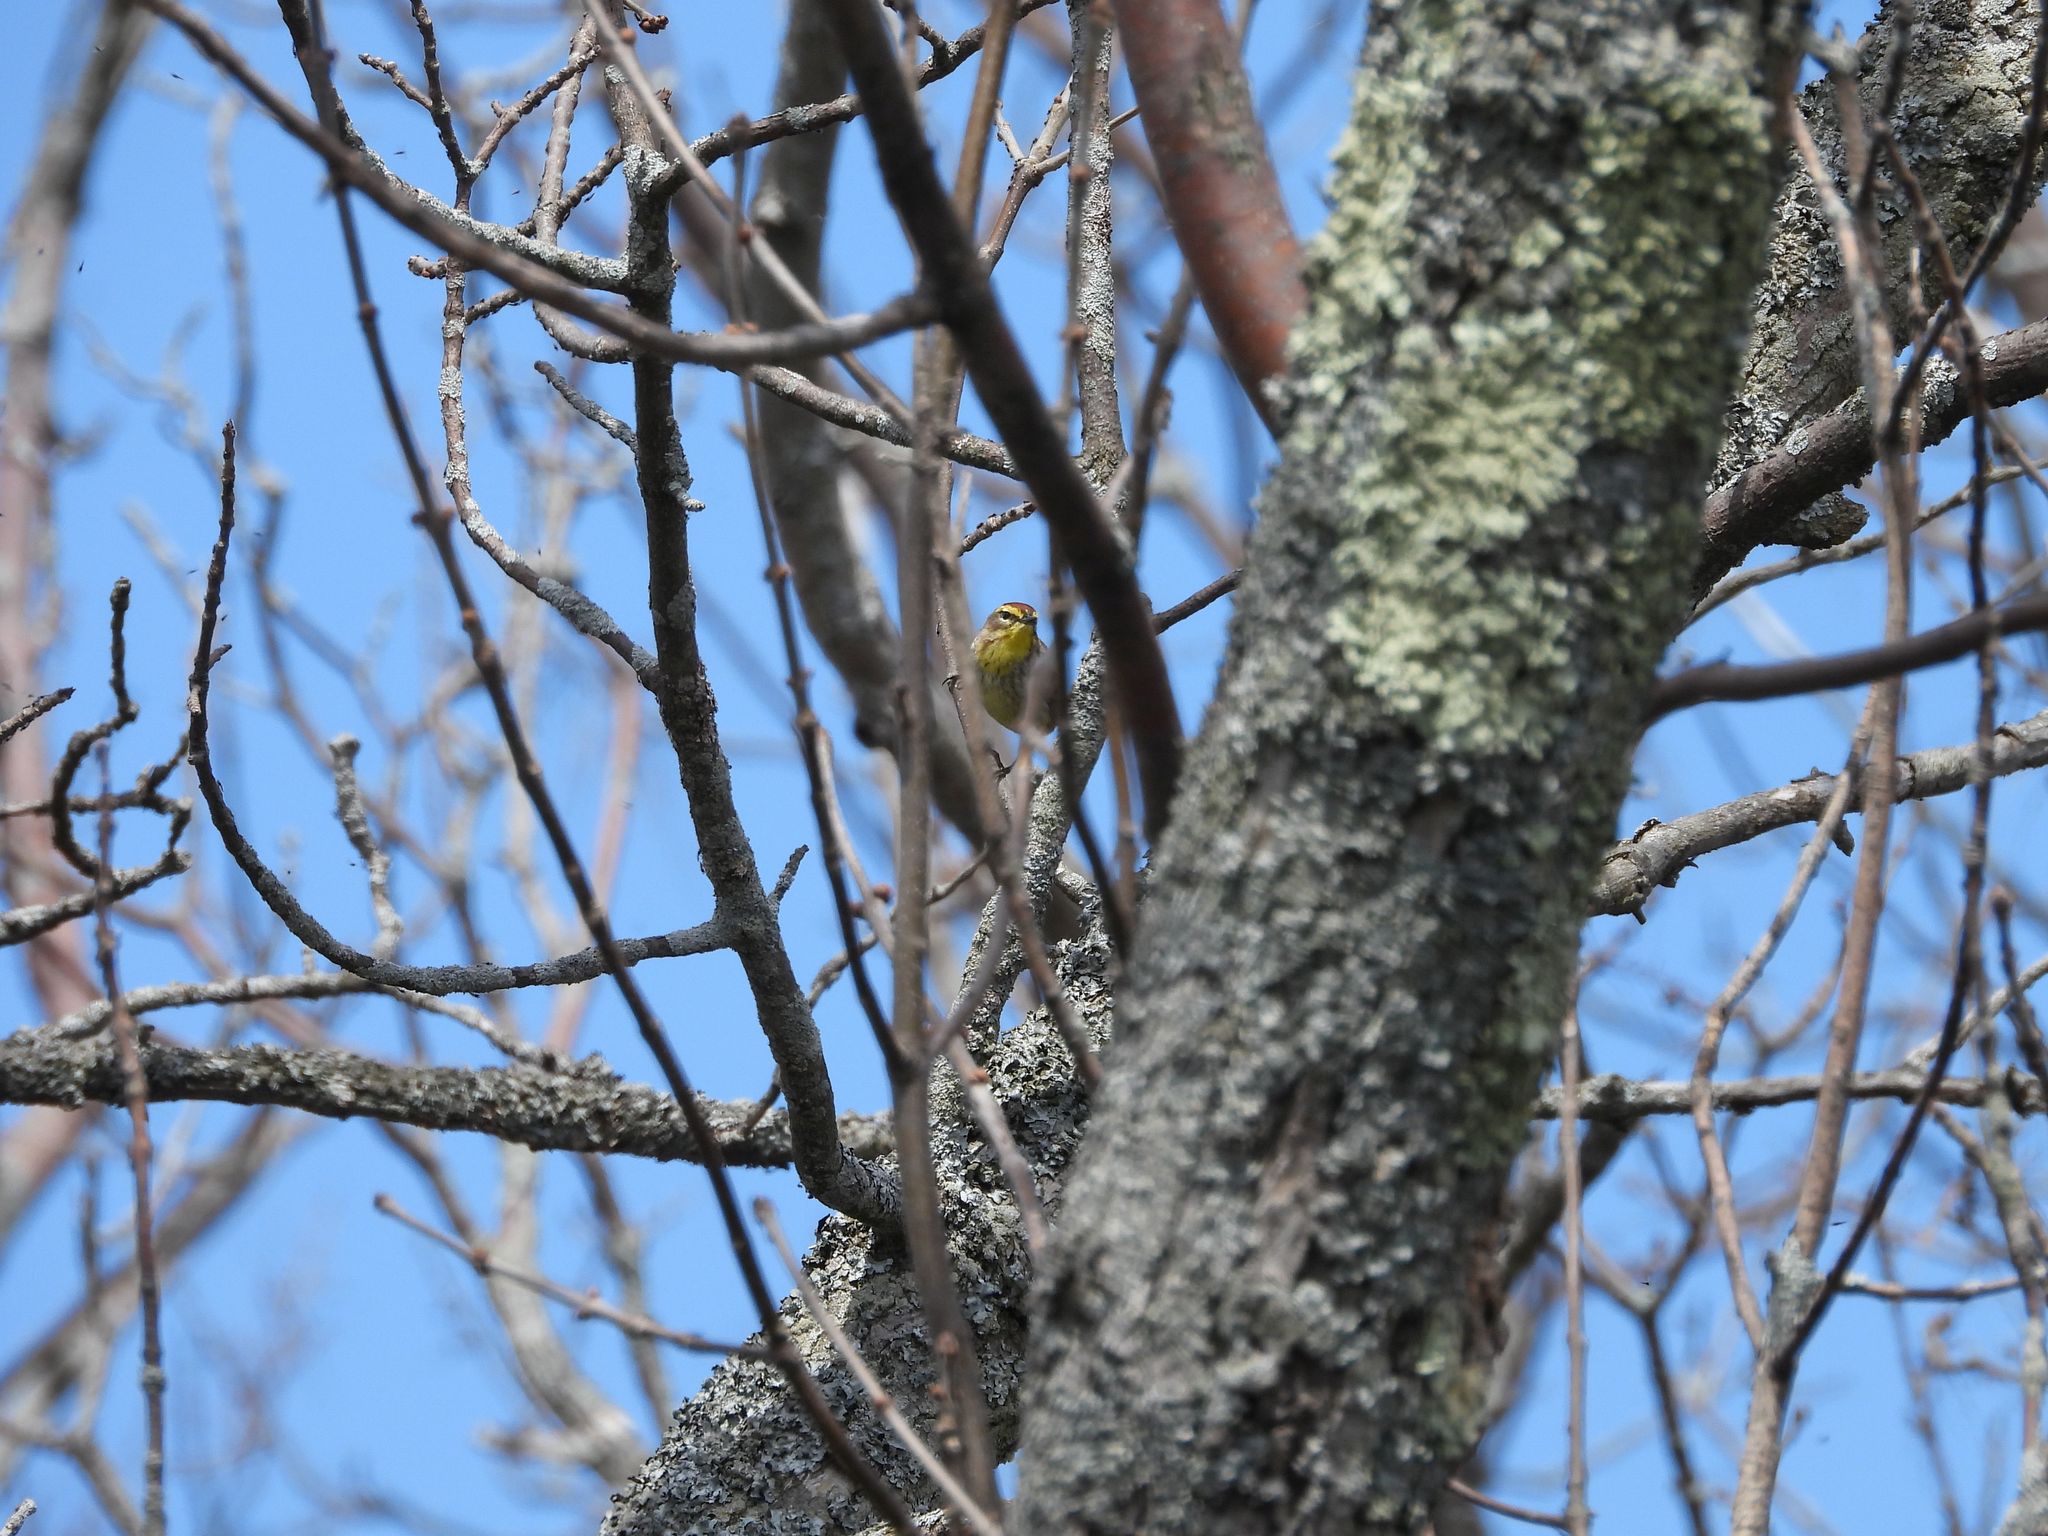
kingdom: Animalia
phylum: Chordata
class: Aves
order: Passeriformes
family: Parulidae
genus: Setophaga
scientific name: Setophaga palmarum
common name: Palm warbler
